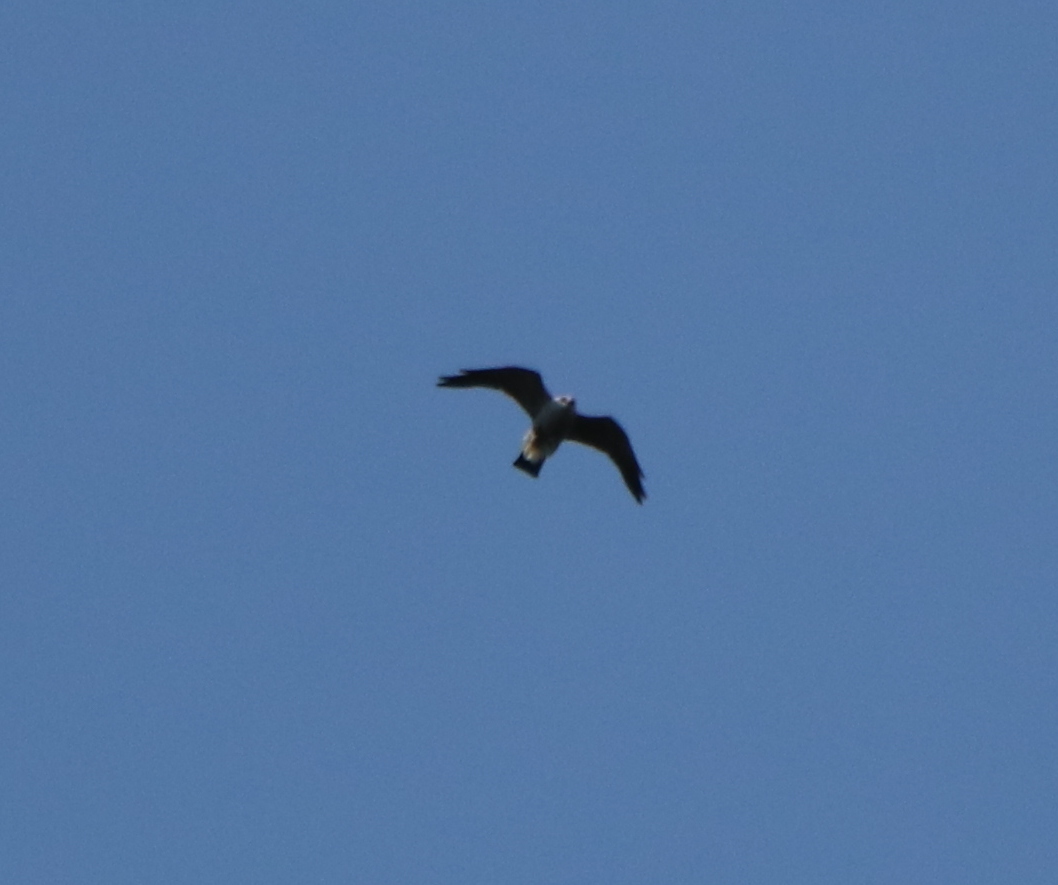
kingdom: Animalia
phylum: Chordata
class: Aves
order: Accipitriformes
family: Accipitridae
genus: Ictinia
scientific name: Ictinia mississippiensis
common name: Mississippi kite
